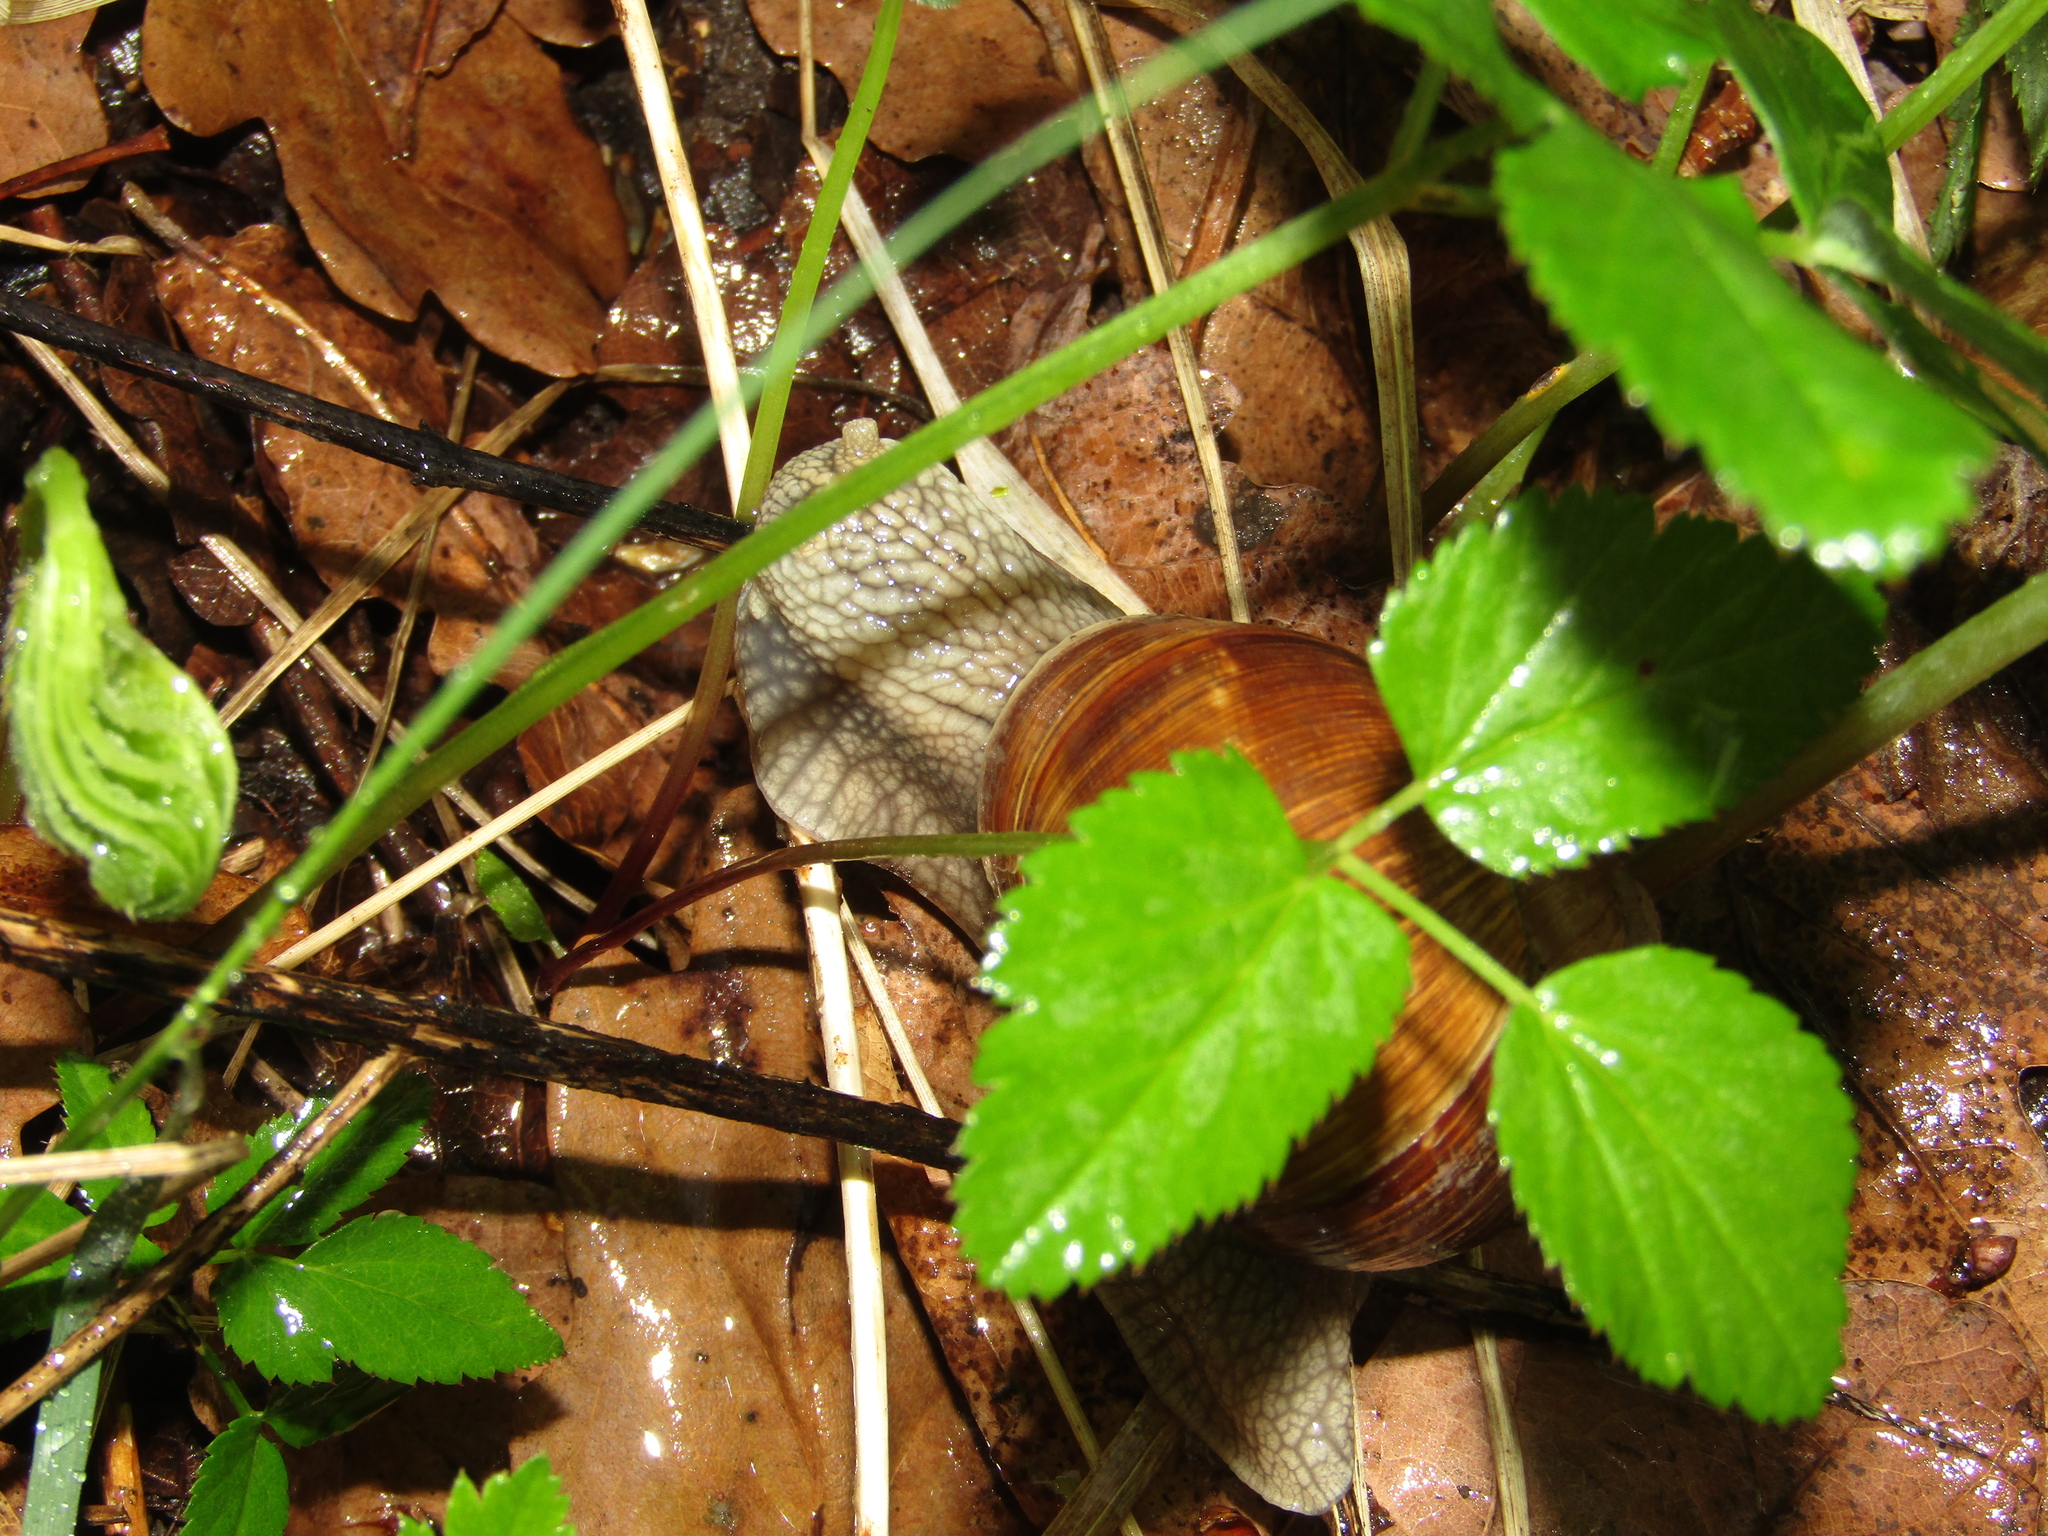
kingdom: Animalia
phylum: Mollusca
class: Gastropoda
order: Stylommatophora
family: Helicidae
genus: Helix
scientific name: Helix pomatia
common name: Roman snail
